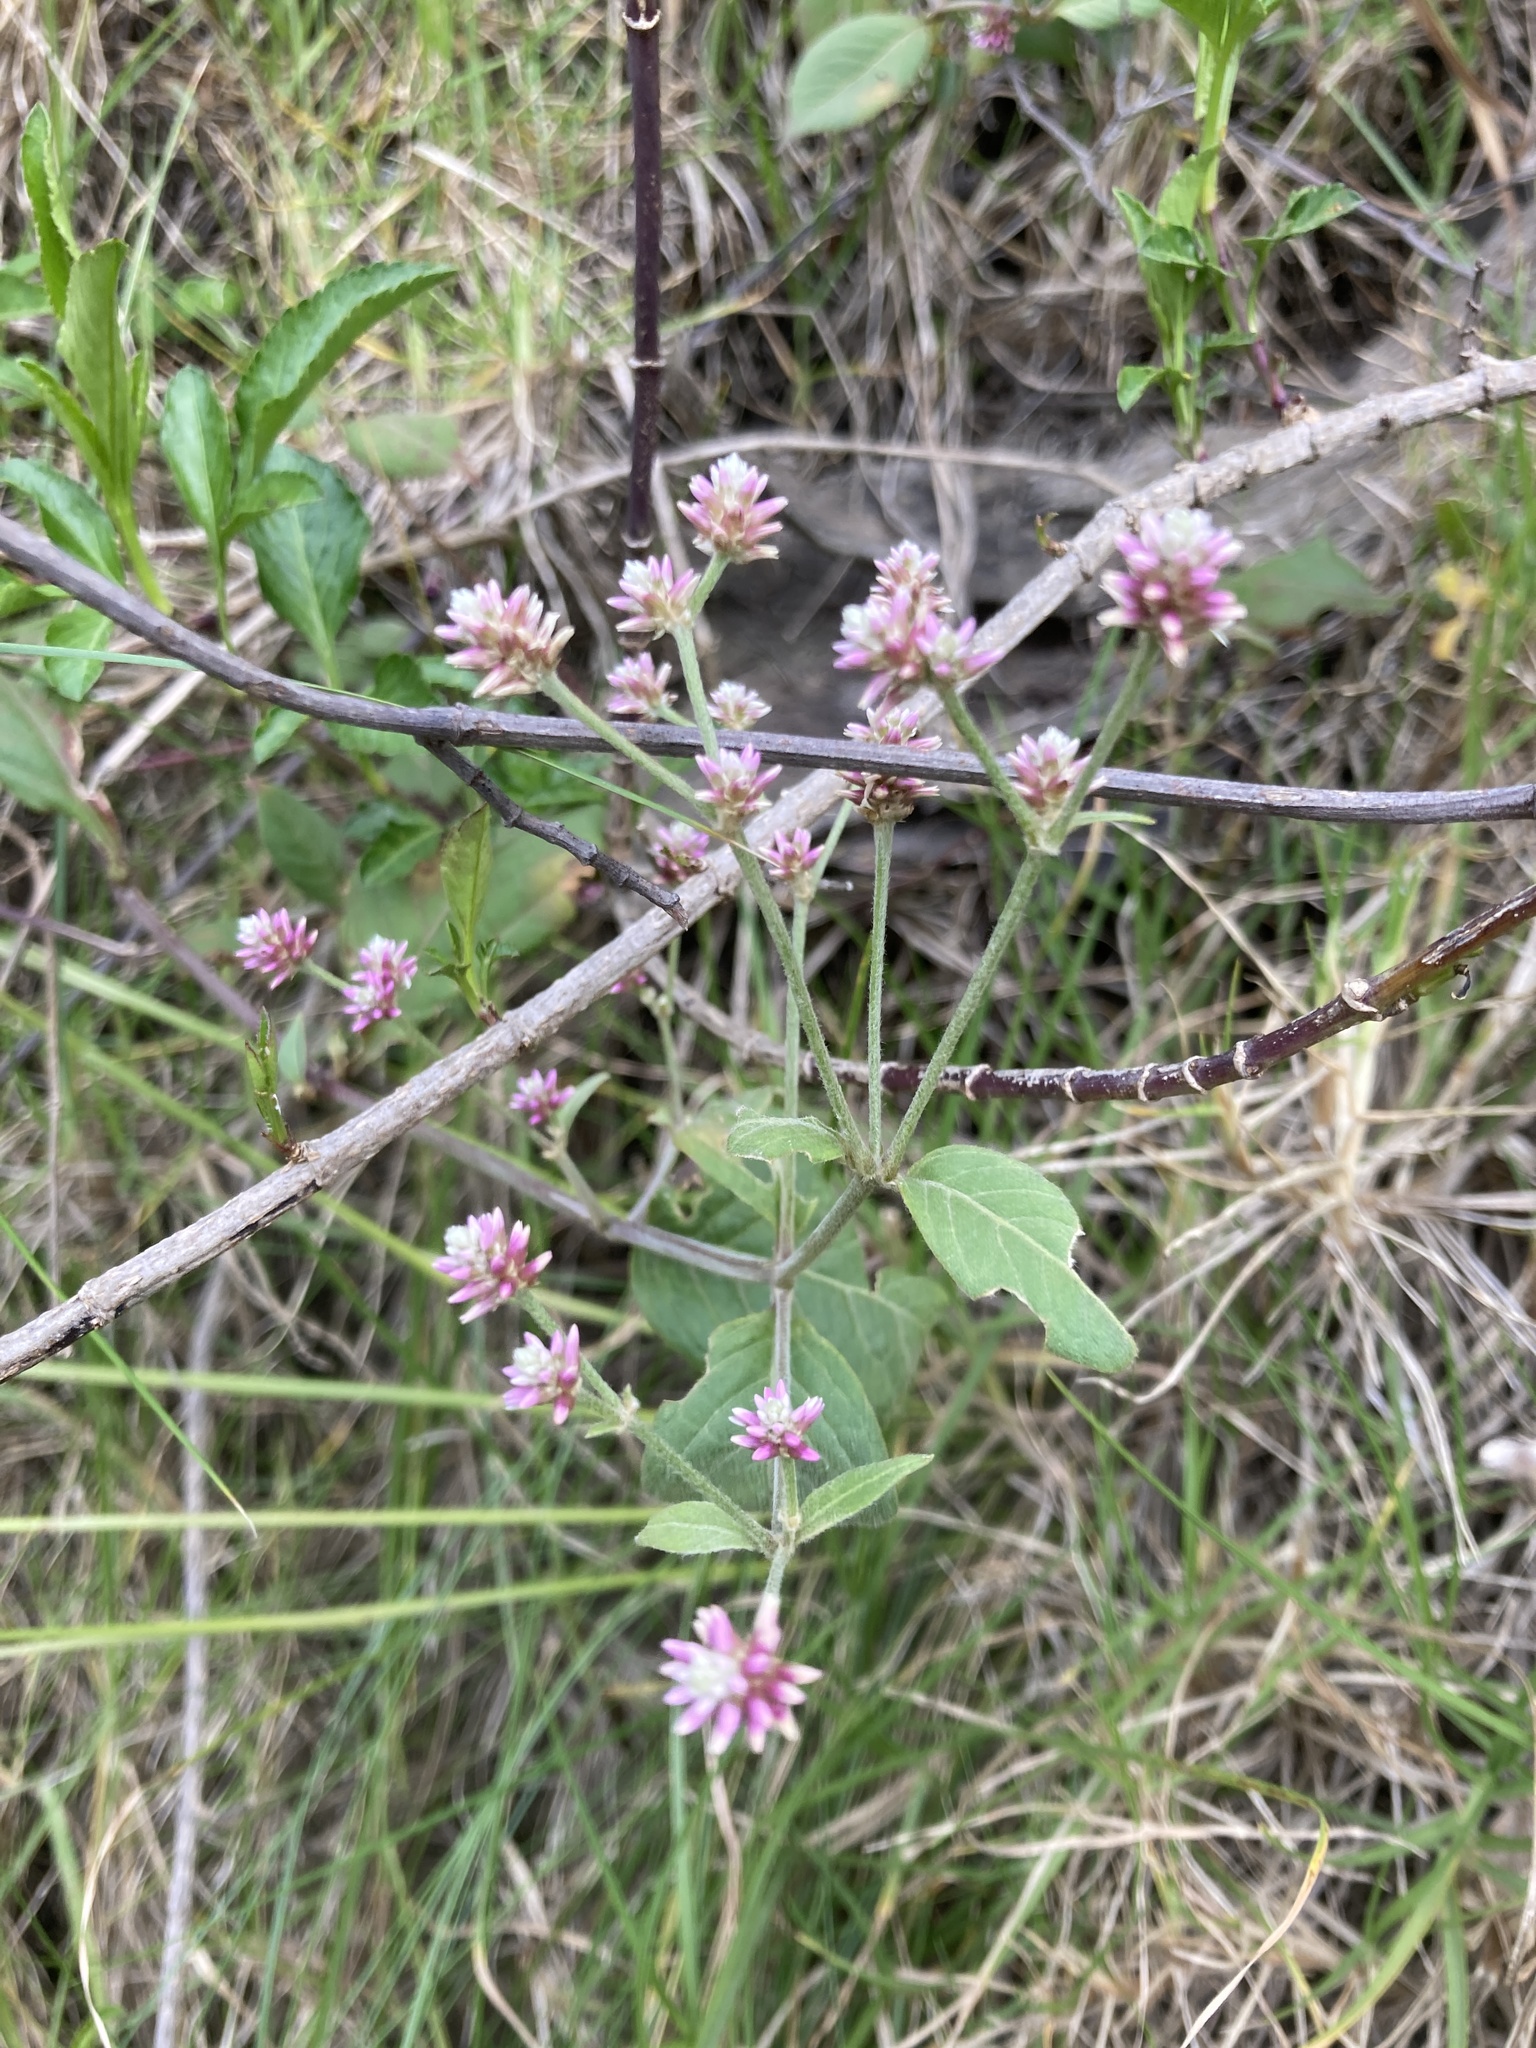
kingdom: Plantae
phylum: Tracheophyta
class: Magnoliopsida
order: Caryophyllales
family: Amaranthaceae
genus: Alternanthera
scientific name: Alternanthera porrigens
